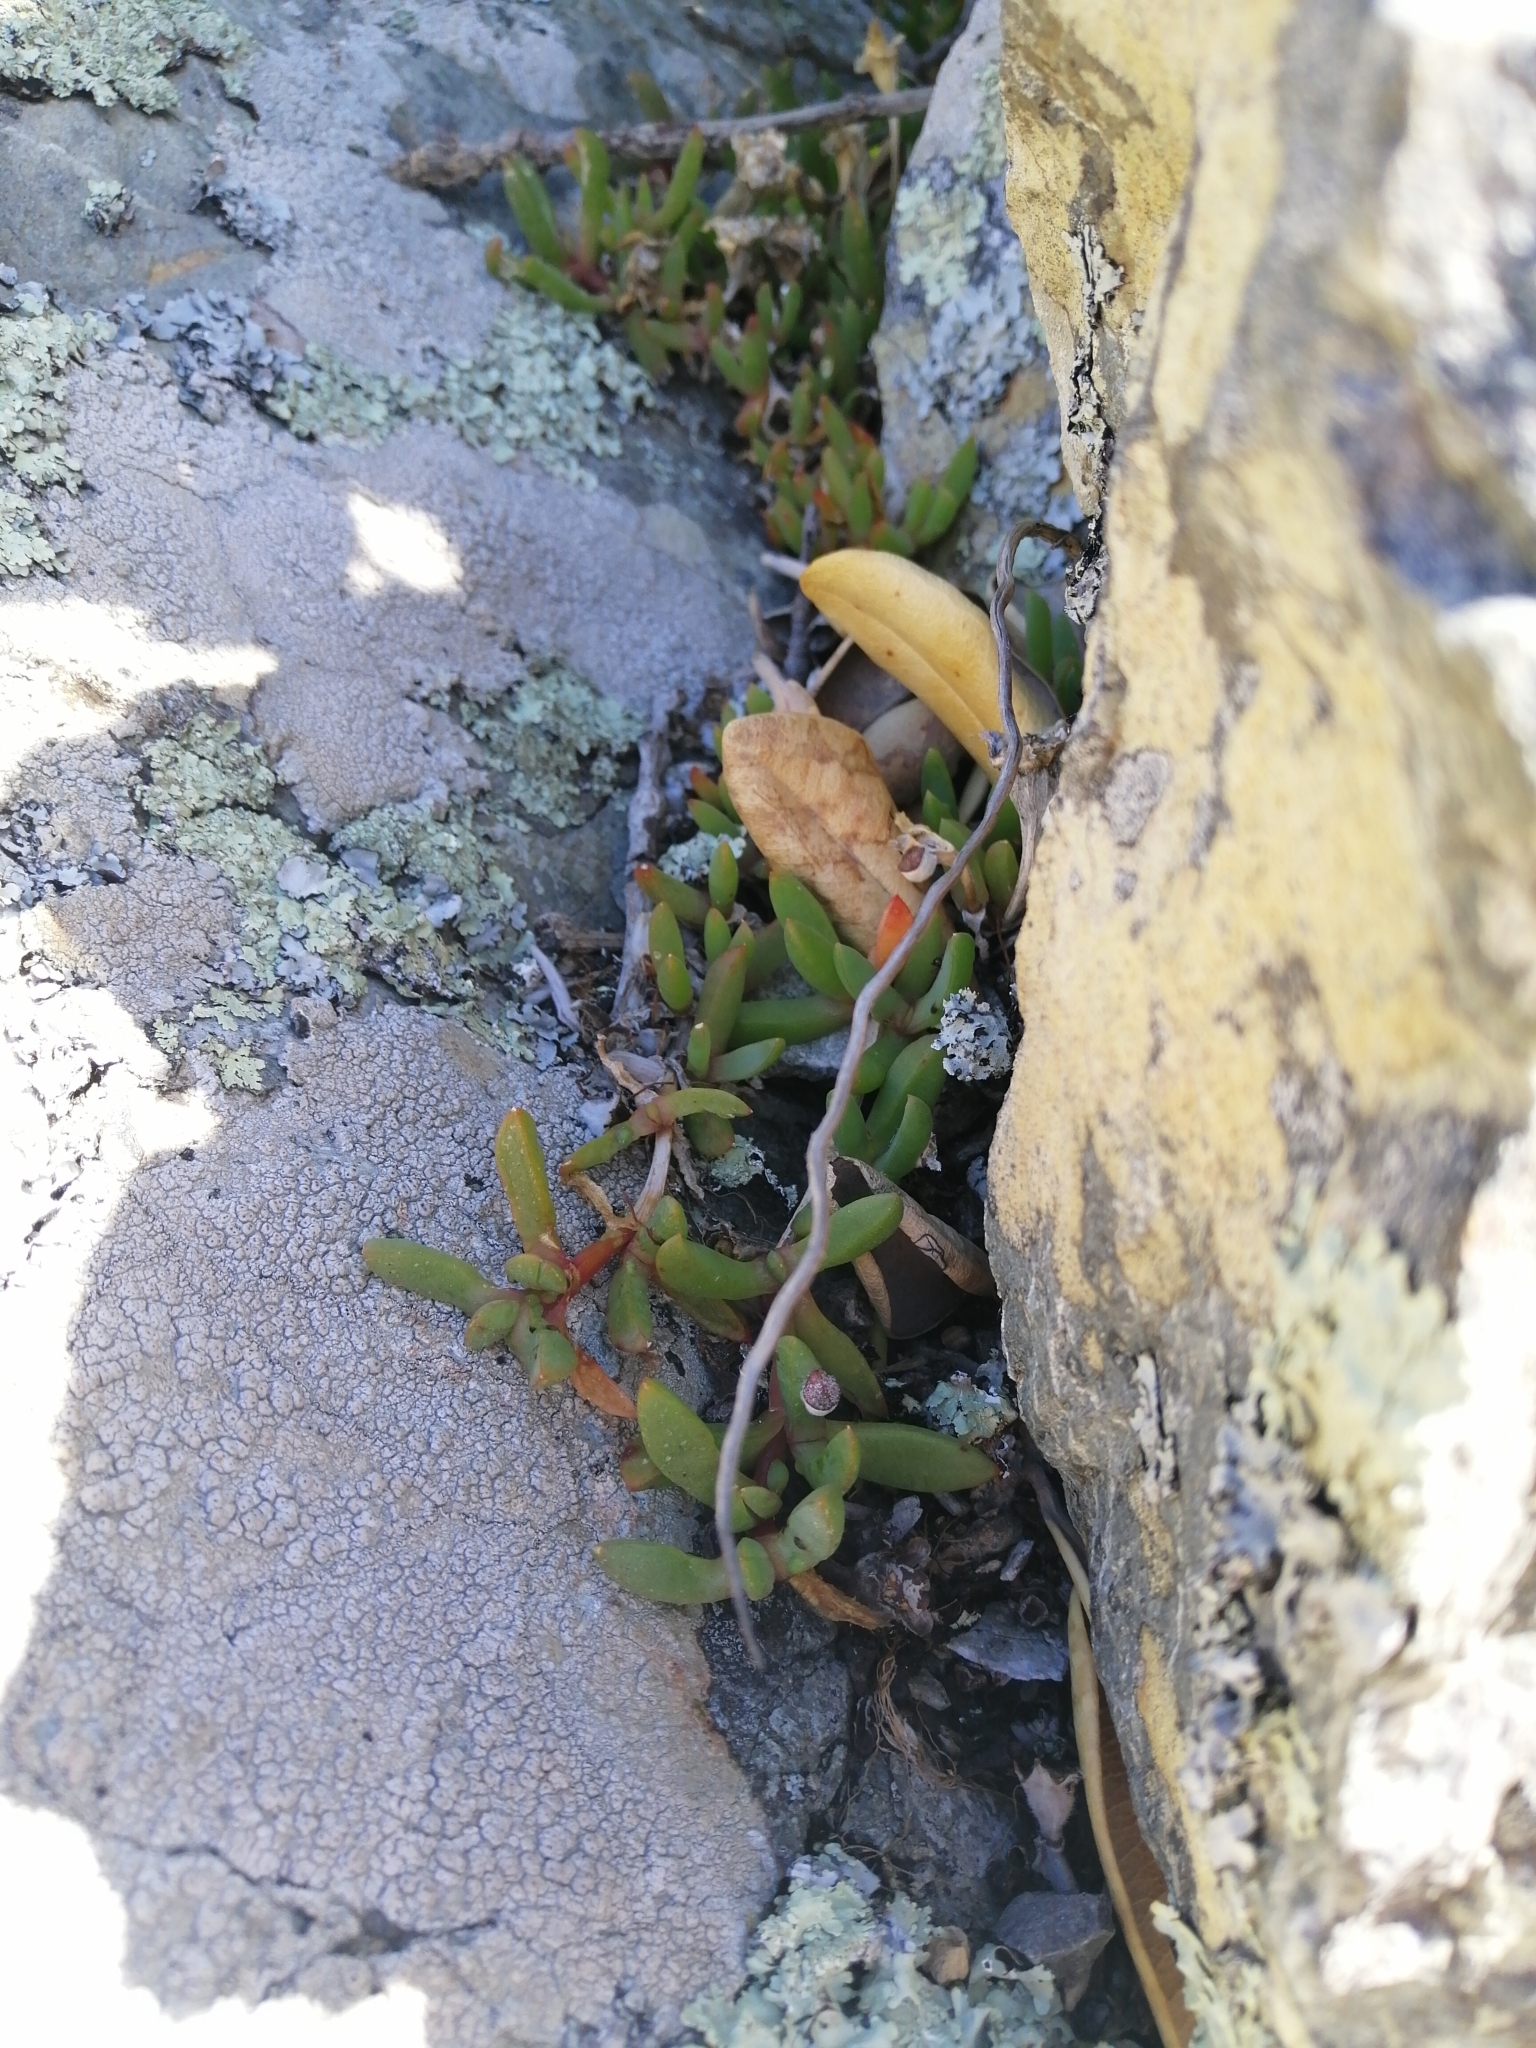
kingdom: Plantae
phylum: Tracheophyta
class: Magnoliopsida
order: Caryophyllales
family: Aizoaceae
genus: Disphyma
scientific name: Disphyma australe
